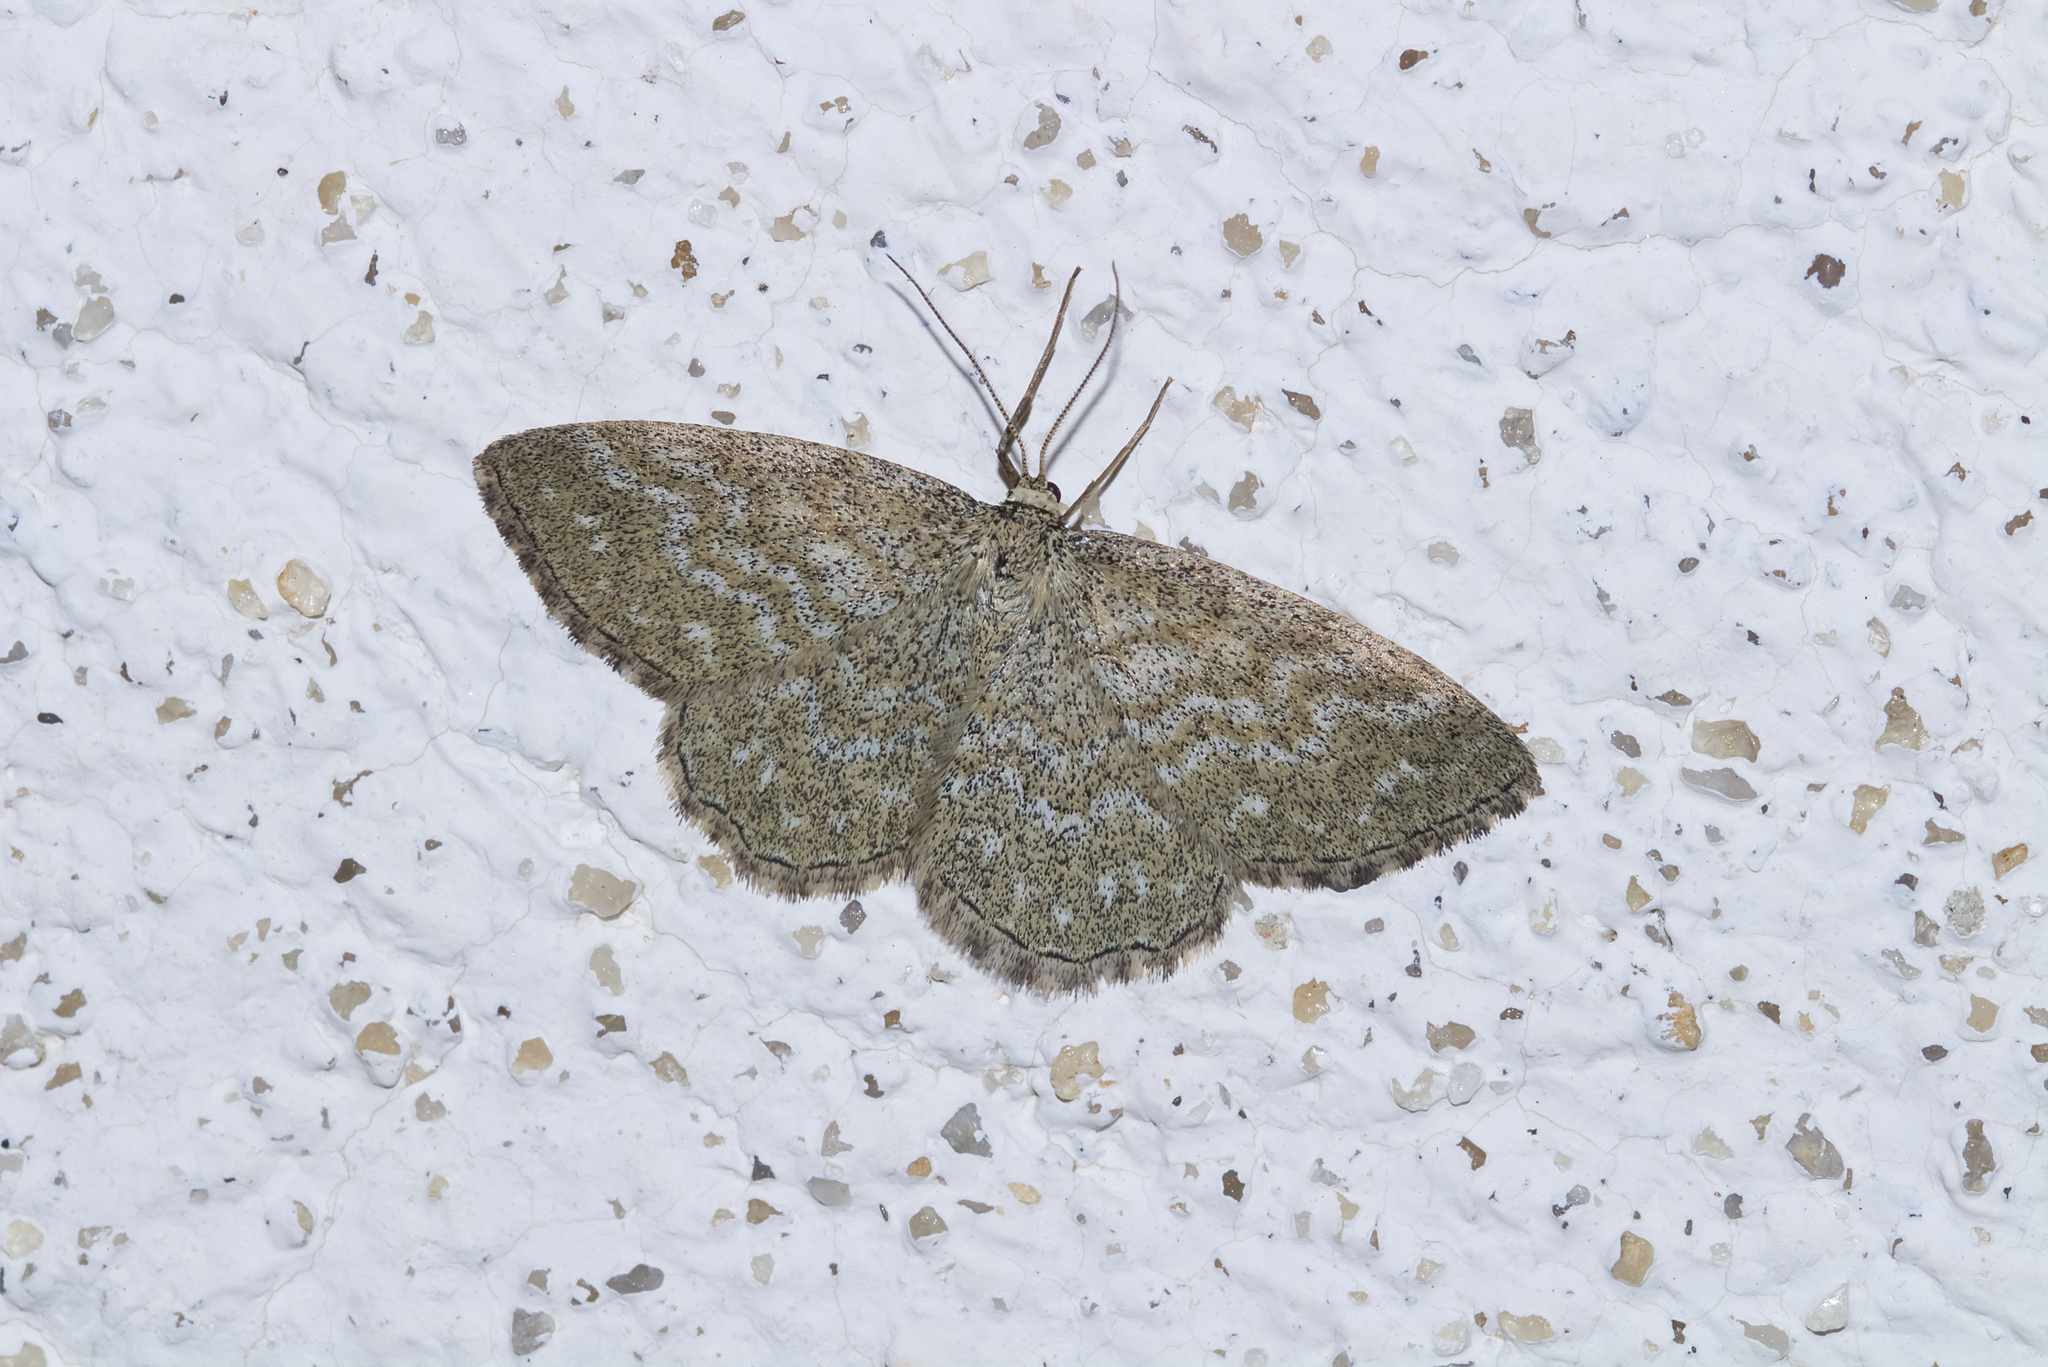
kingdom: Animalia
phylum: Arthropoda
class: Insecta
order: Lepidoptera
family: Geometridae
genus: Scopula
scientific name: Scopula immorata
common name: Lewes wave
